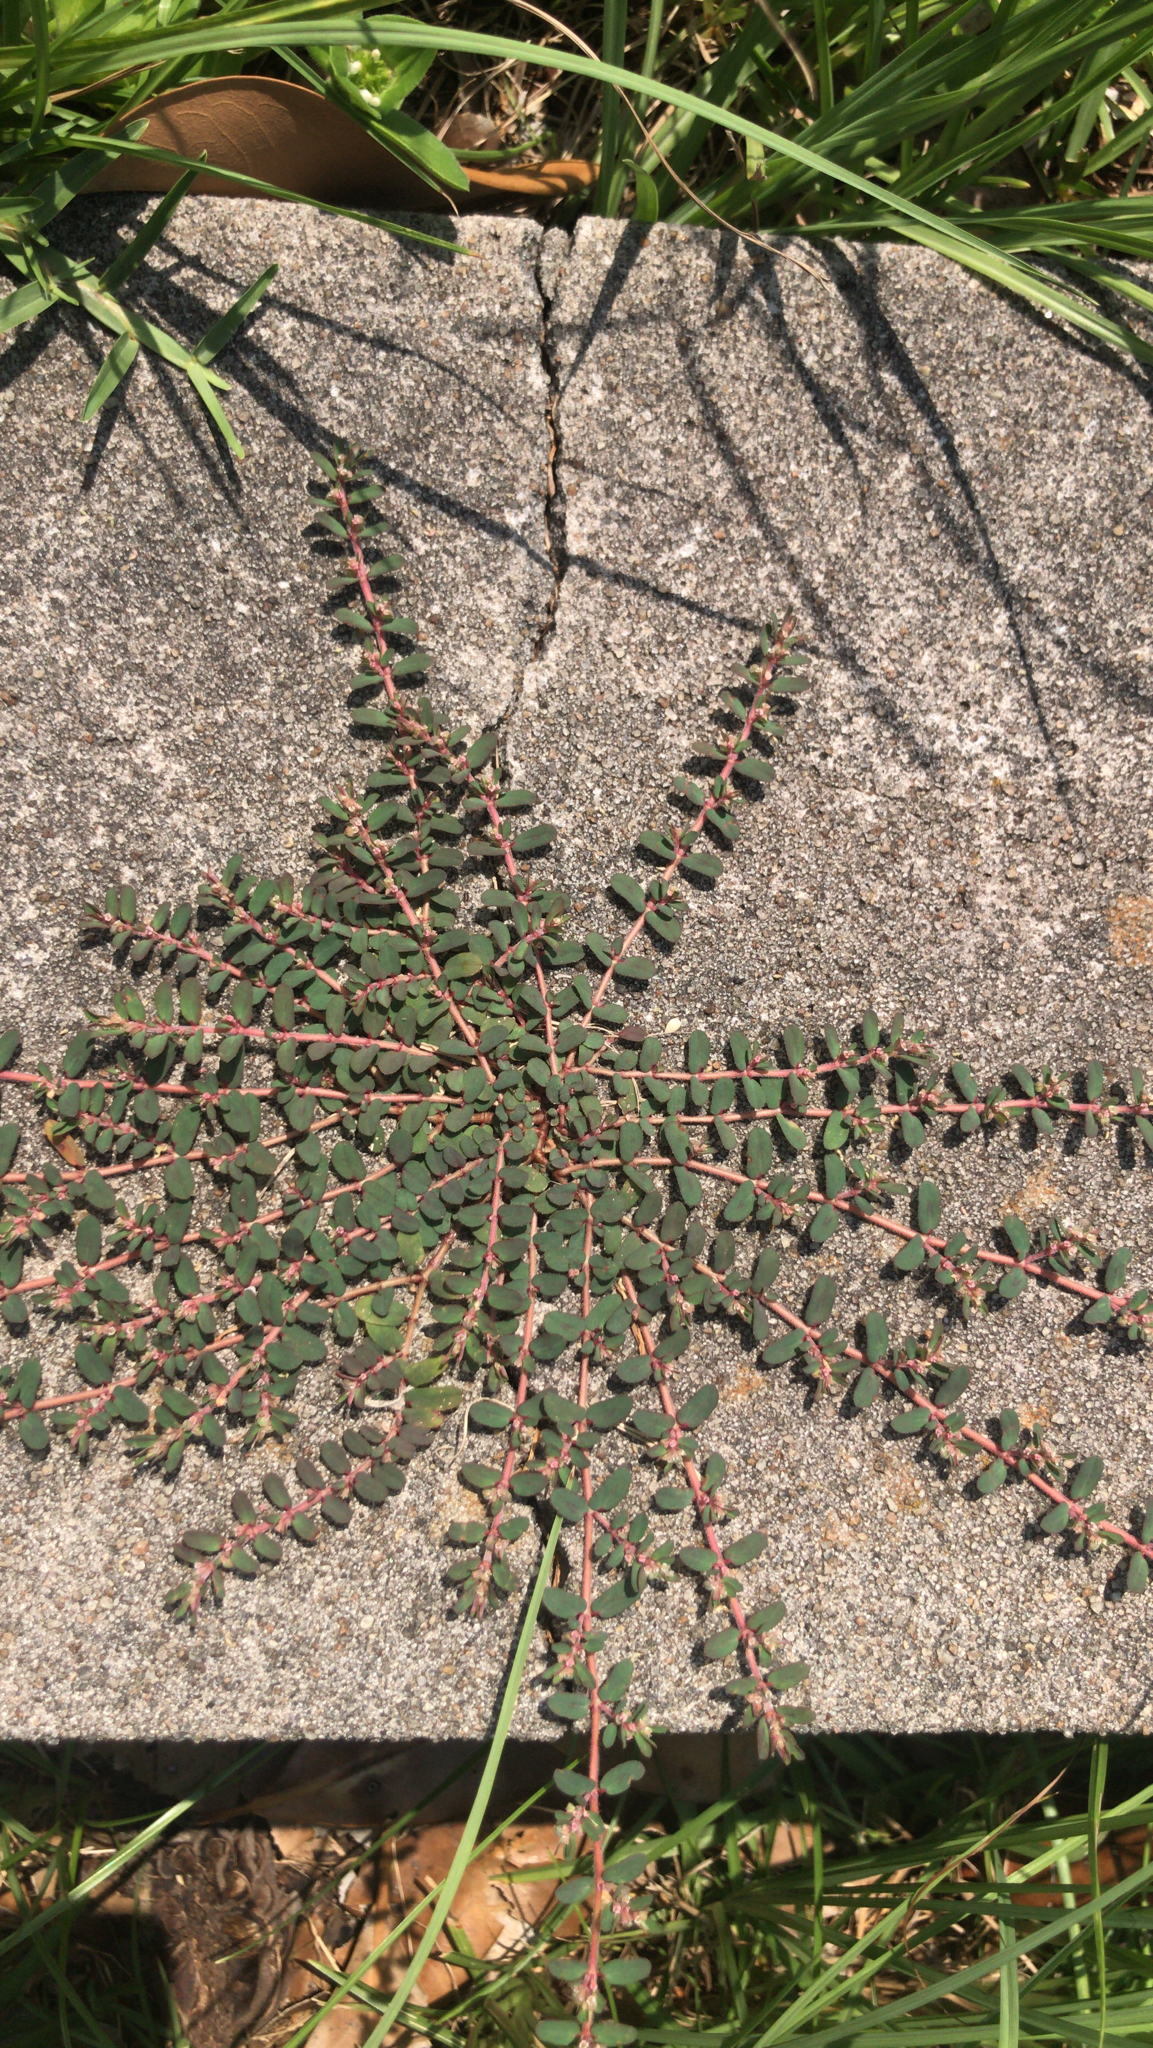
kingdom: Plantae
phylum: Tracheophyta
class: Magnoliopsida
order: Malpighiales
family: Euphorbiaceae
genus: Euphorbia
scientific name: Euphorbia maculata
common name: Spotted spurge
